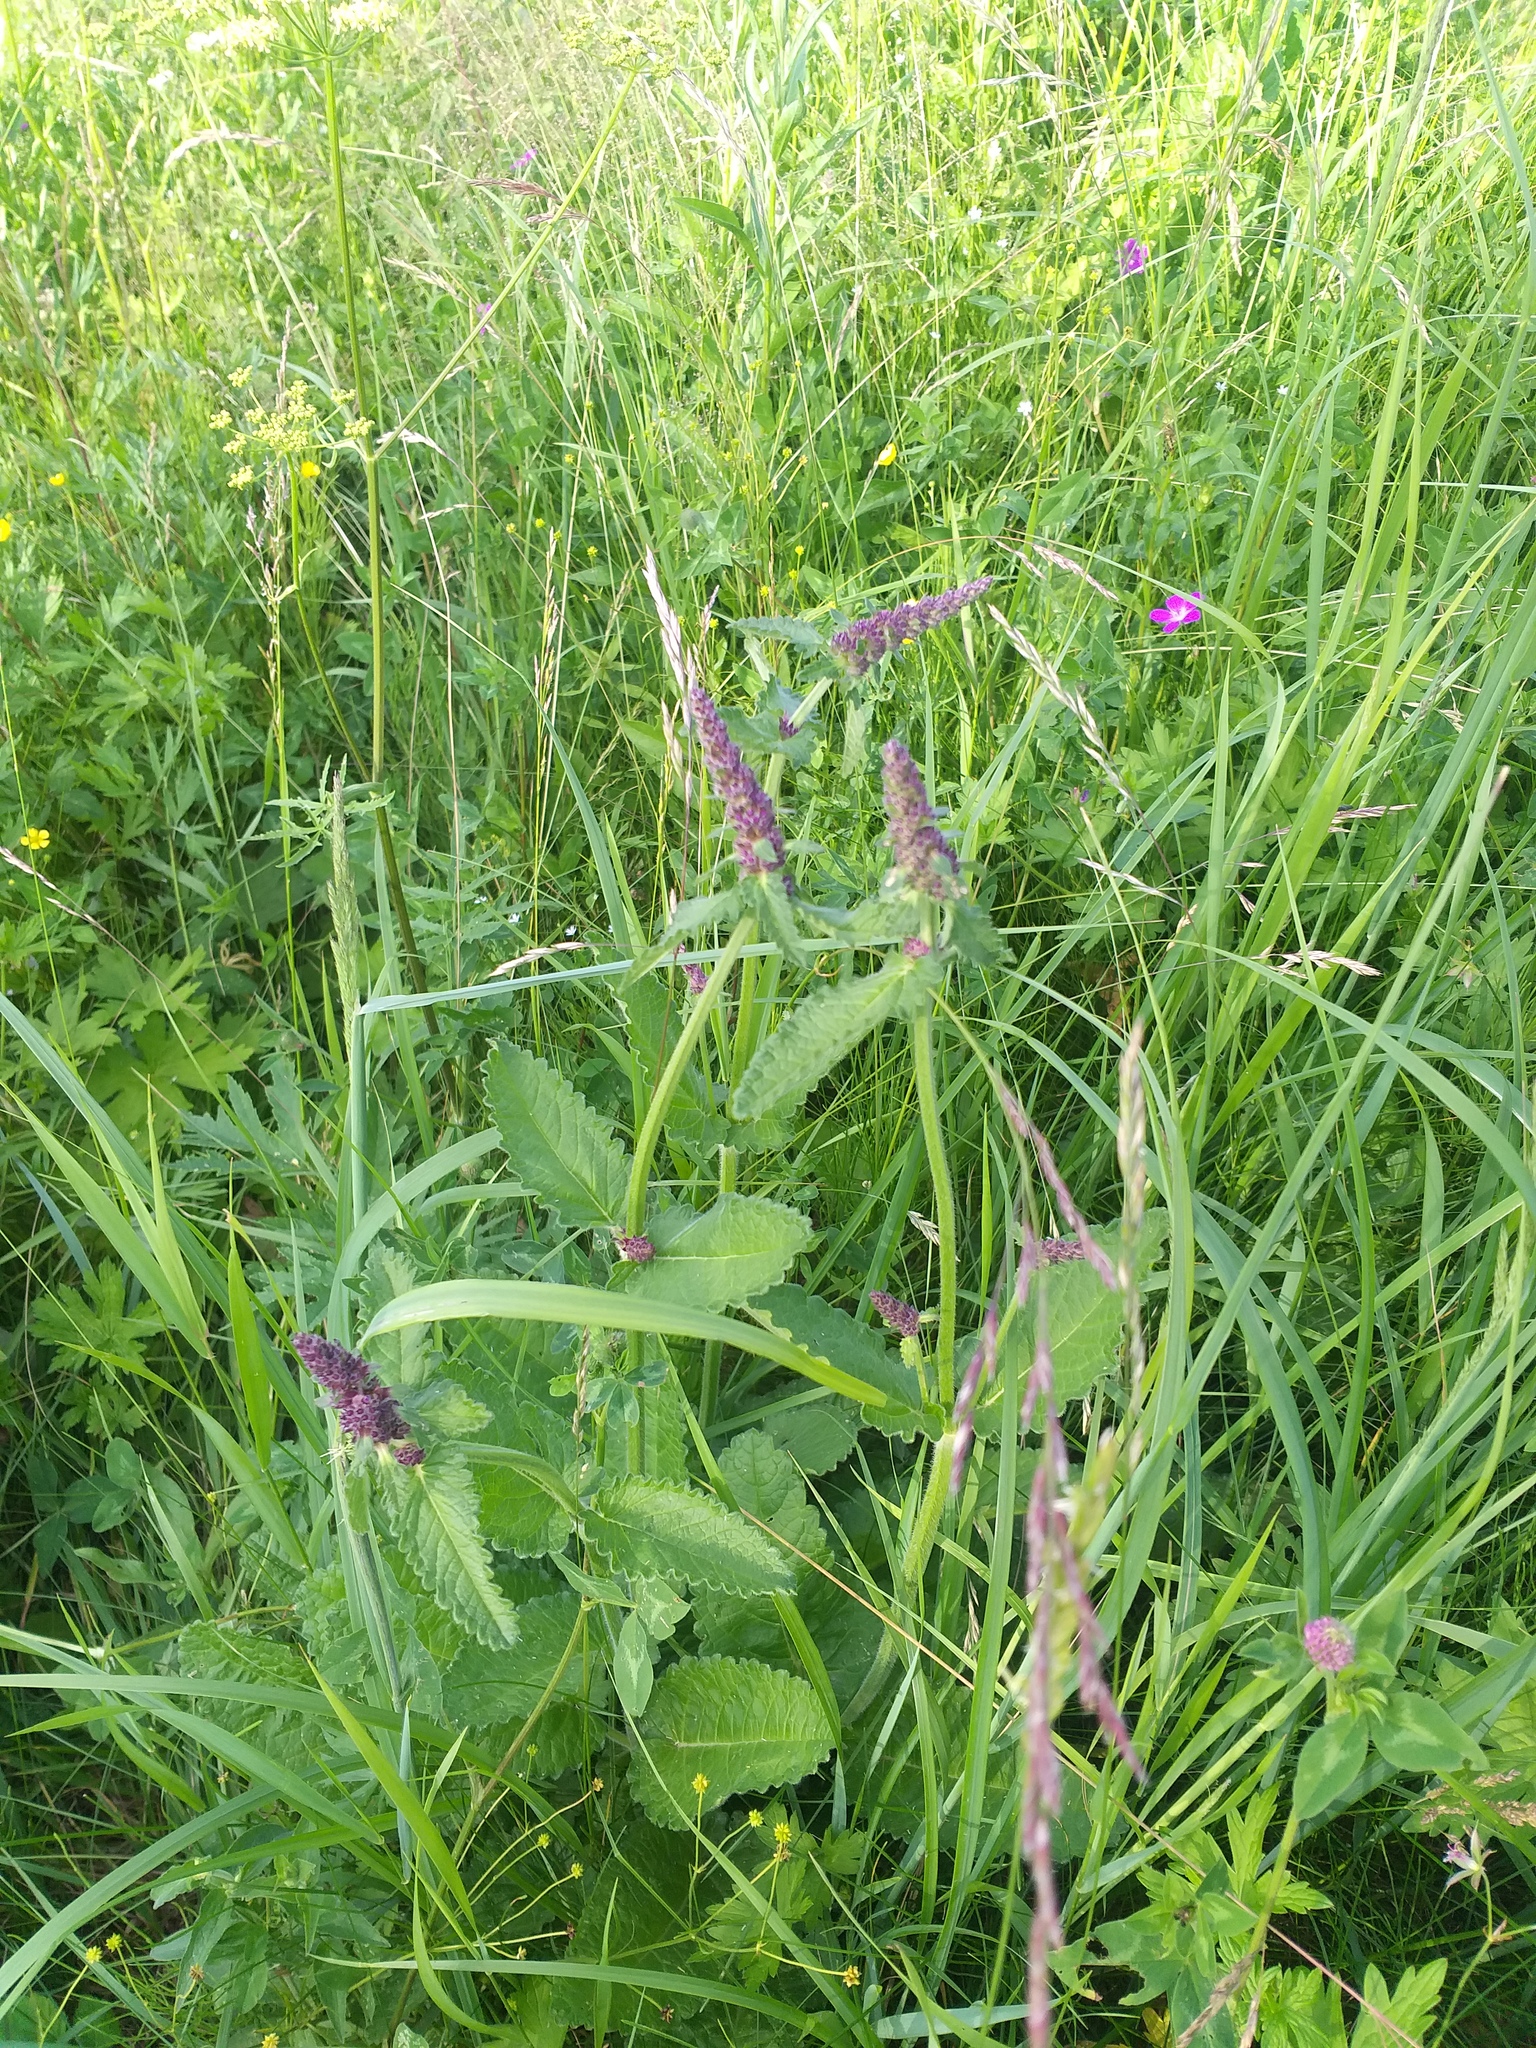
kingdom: Plantae
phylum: Tracheophyta
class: Magnoliopsida
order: Lamiales
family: Lamiaceae
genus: Betonica
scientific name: Betonica officinalis
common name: Bishop's-wort
